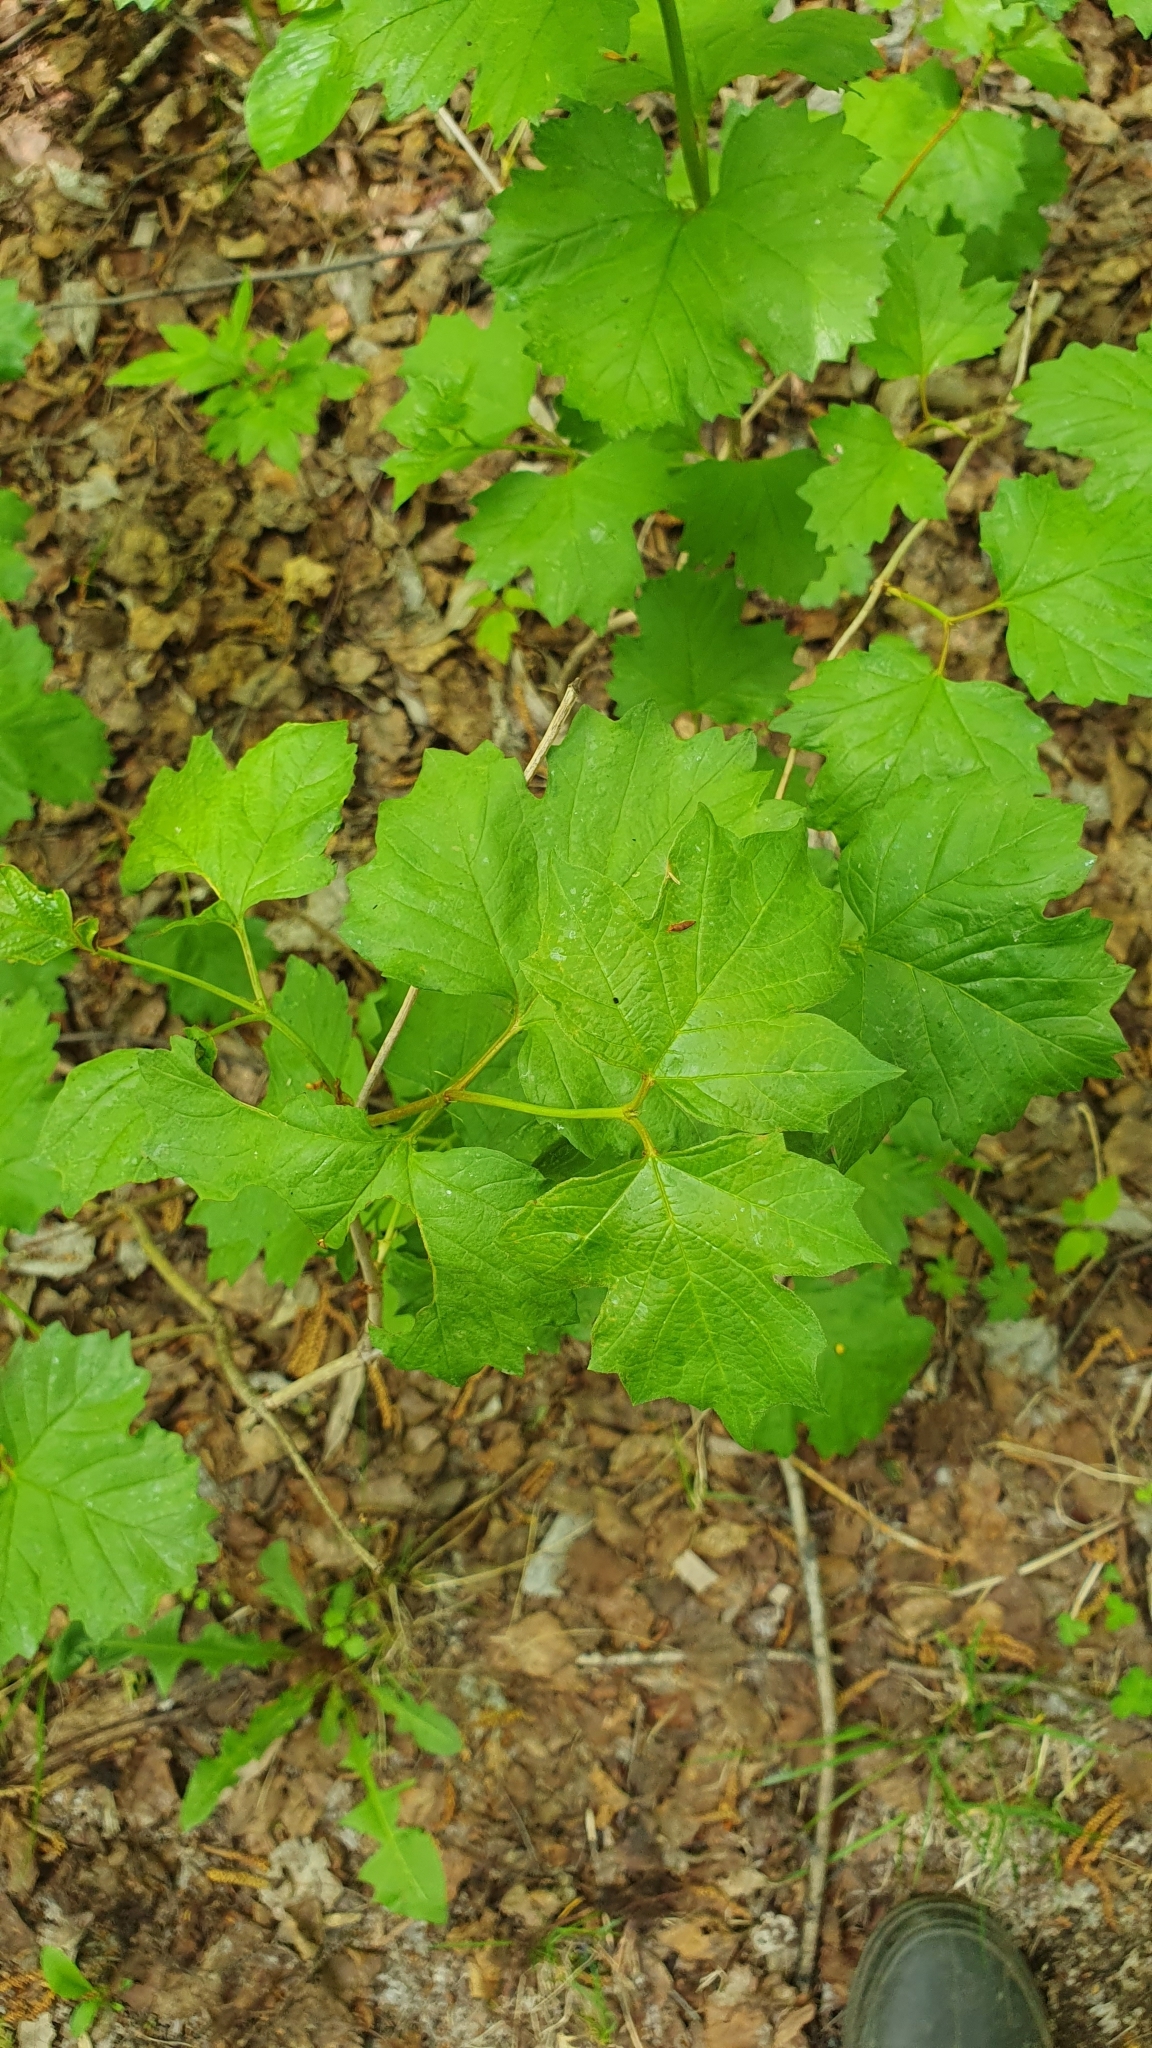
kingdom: Plantae
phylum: Tracheophyta
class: Magnoliopsida
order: Dipsacales
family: Viburnaceae
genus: Viburnum
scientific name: Viburnum opulus
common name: Guelder-rose
